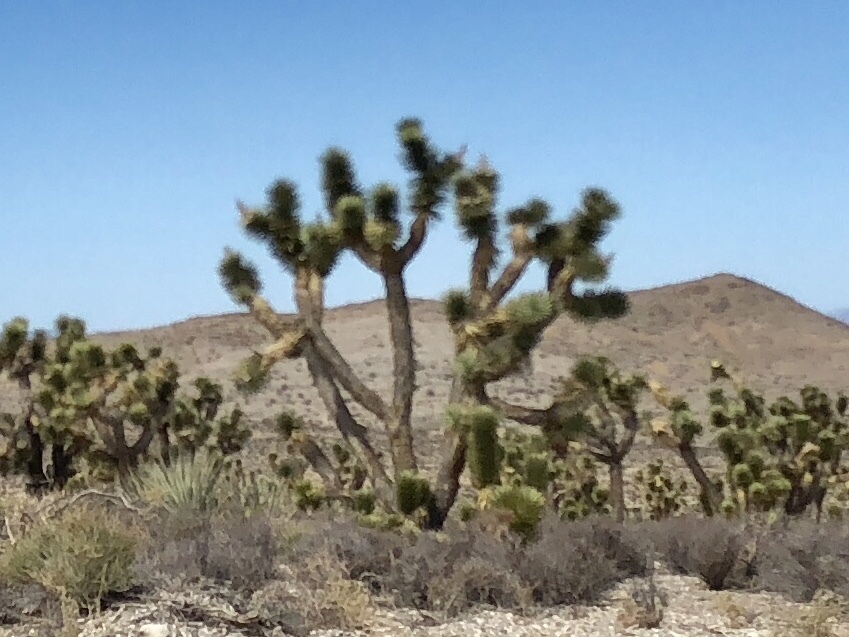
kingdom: Plantae
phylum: Tracheophyta
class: Liliopsida
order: Asparagales
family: Asparagaceae
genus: Yucca
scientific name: Yucca brevifolia
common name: Joshua tree
